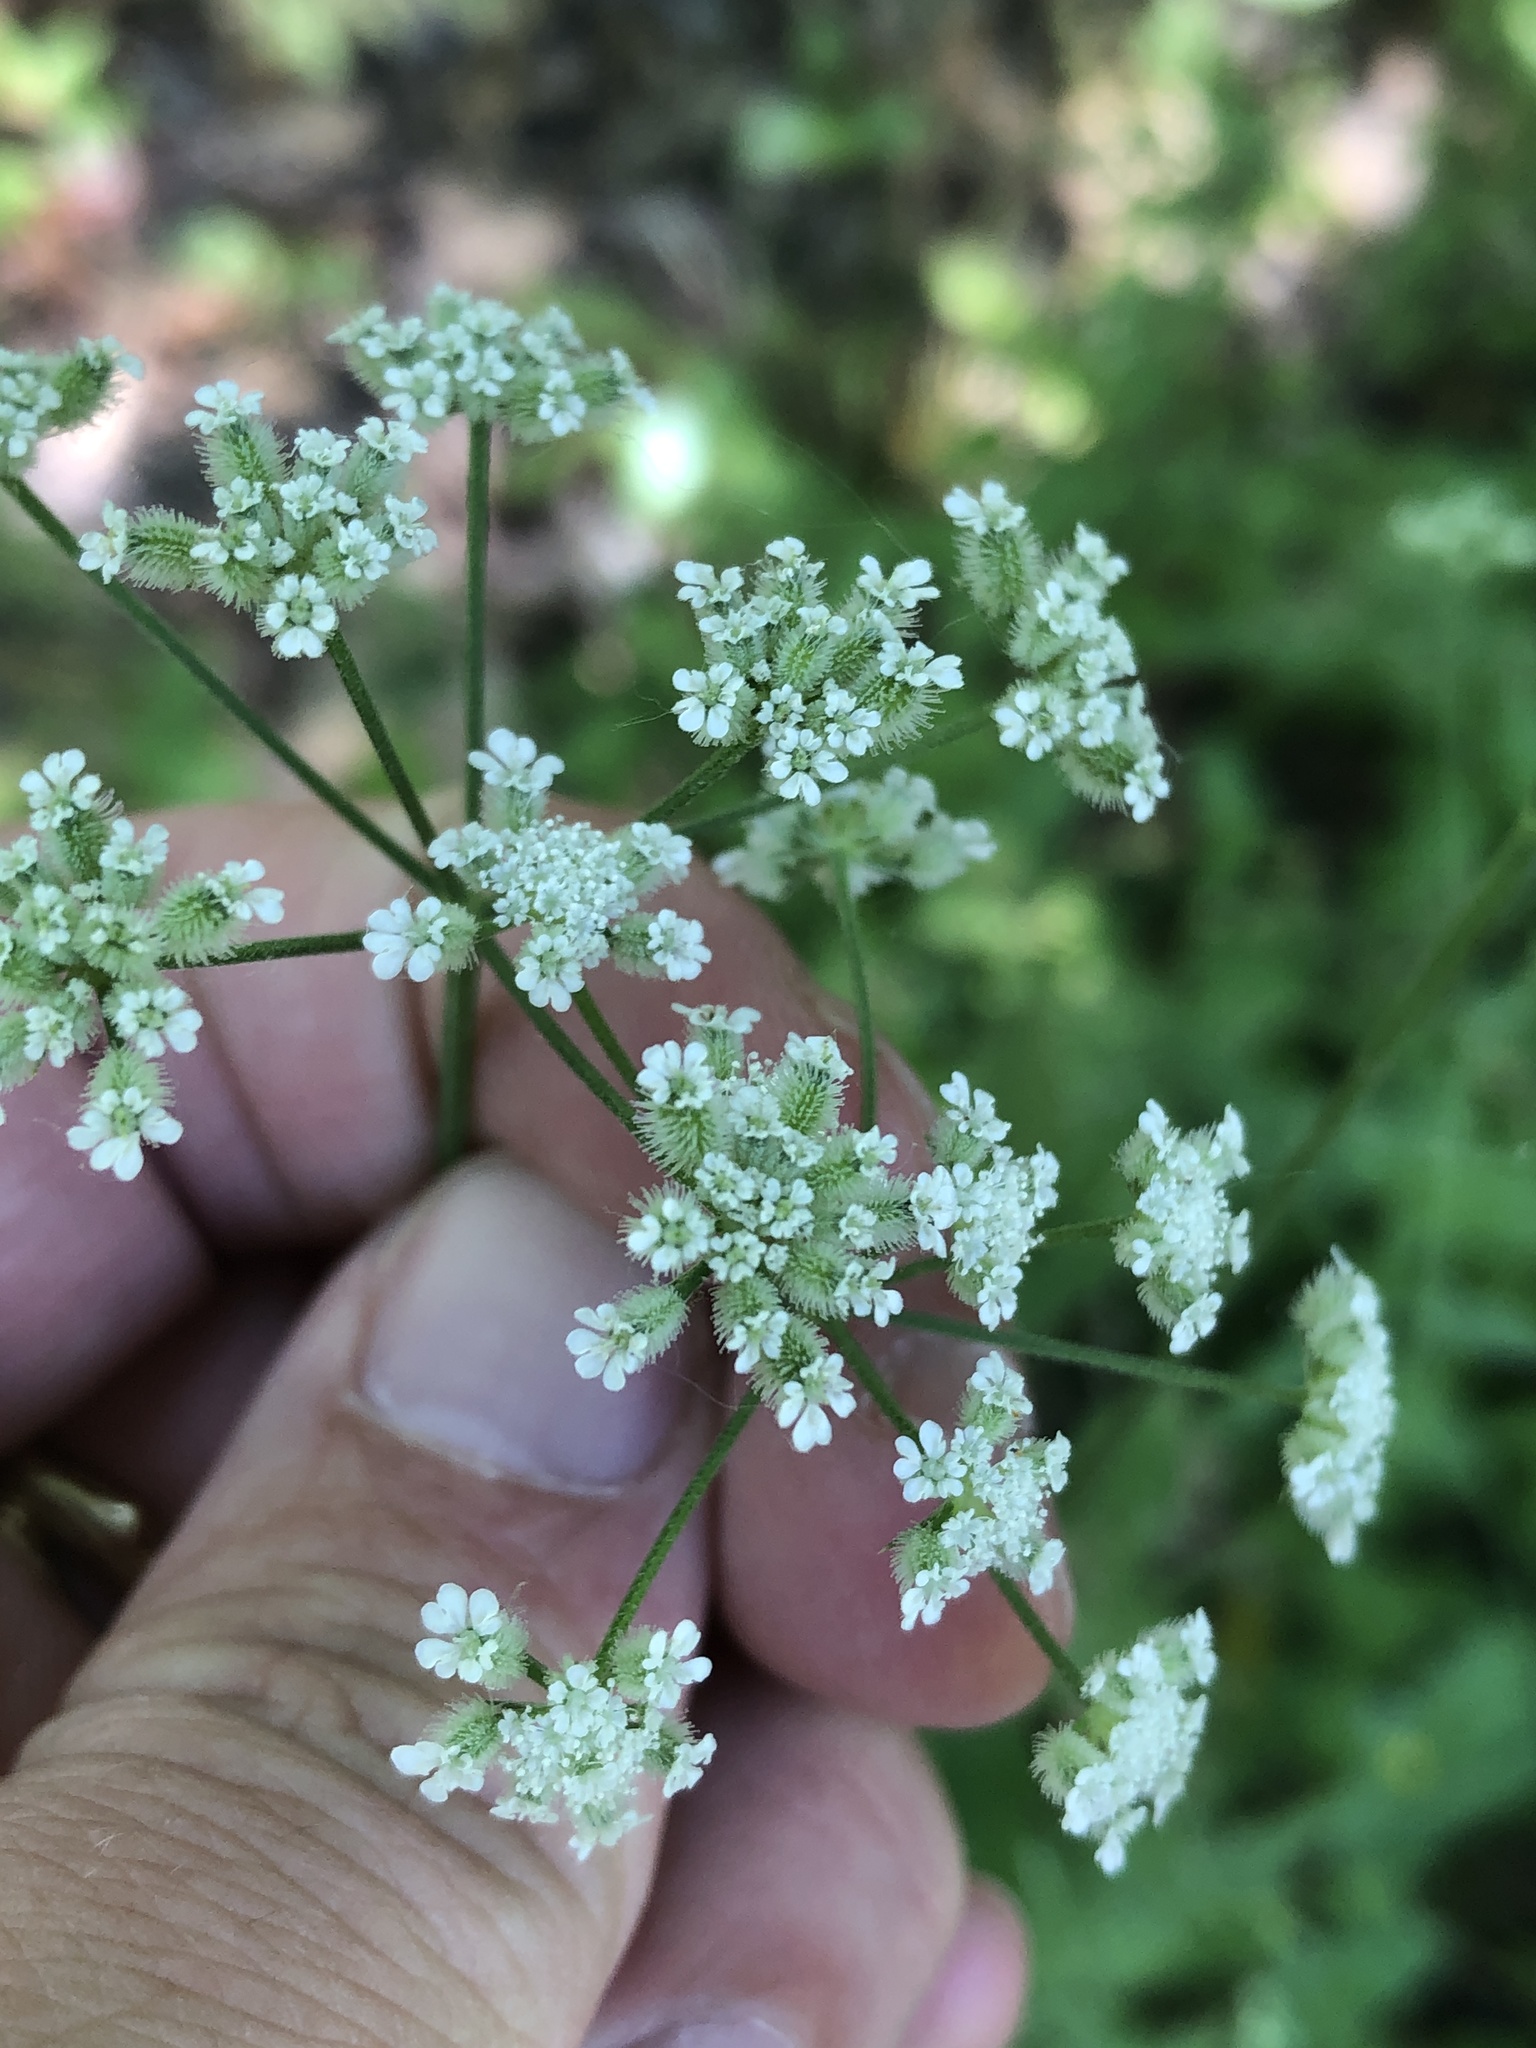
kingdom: Plantae
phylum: Tracheophyta
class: Magnoliopsida
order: Apiales
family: Apiaceae
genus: Torilis
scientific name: Torilis arvensis
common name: Spreading hedge-parsley
